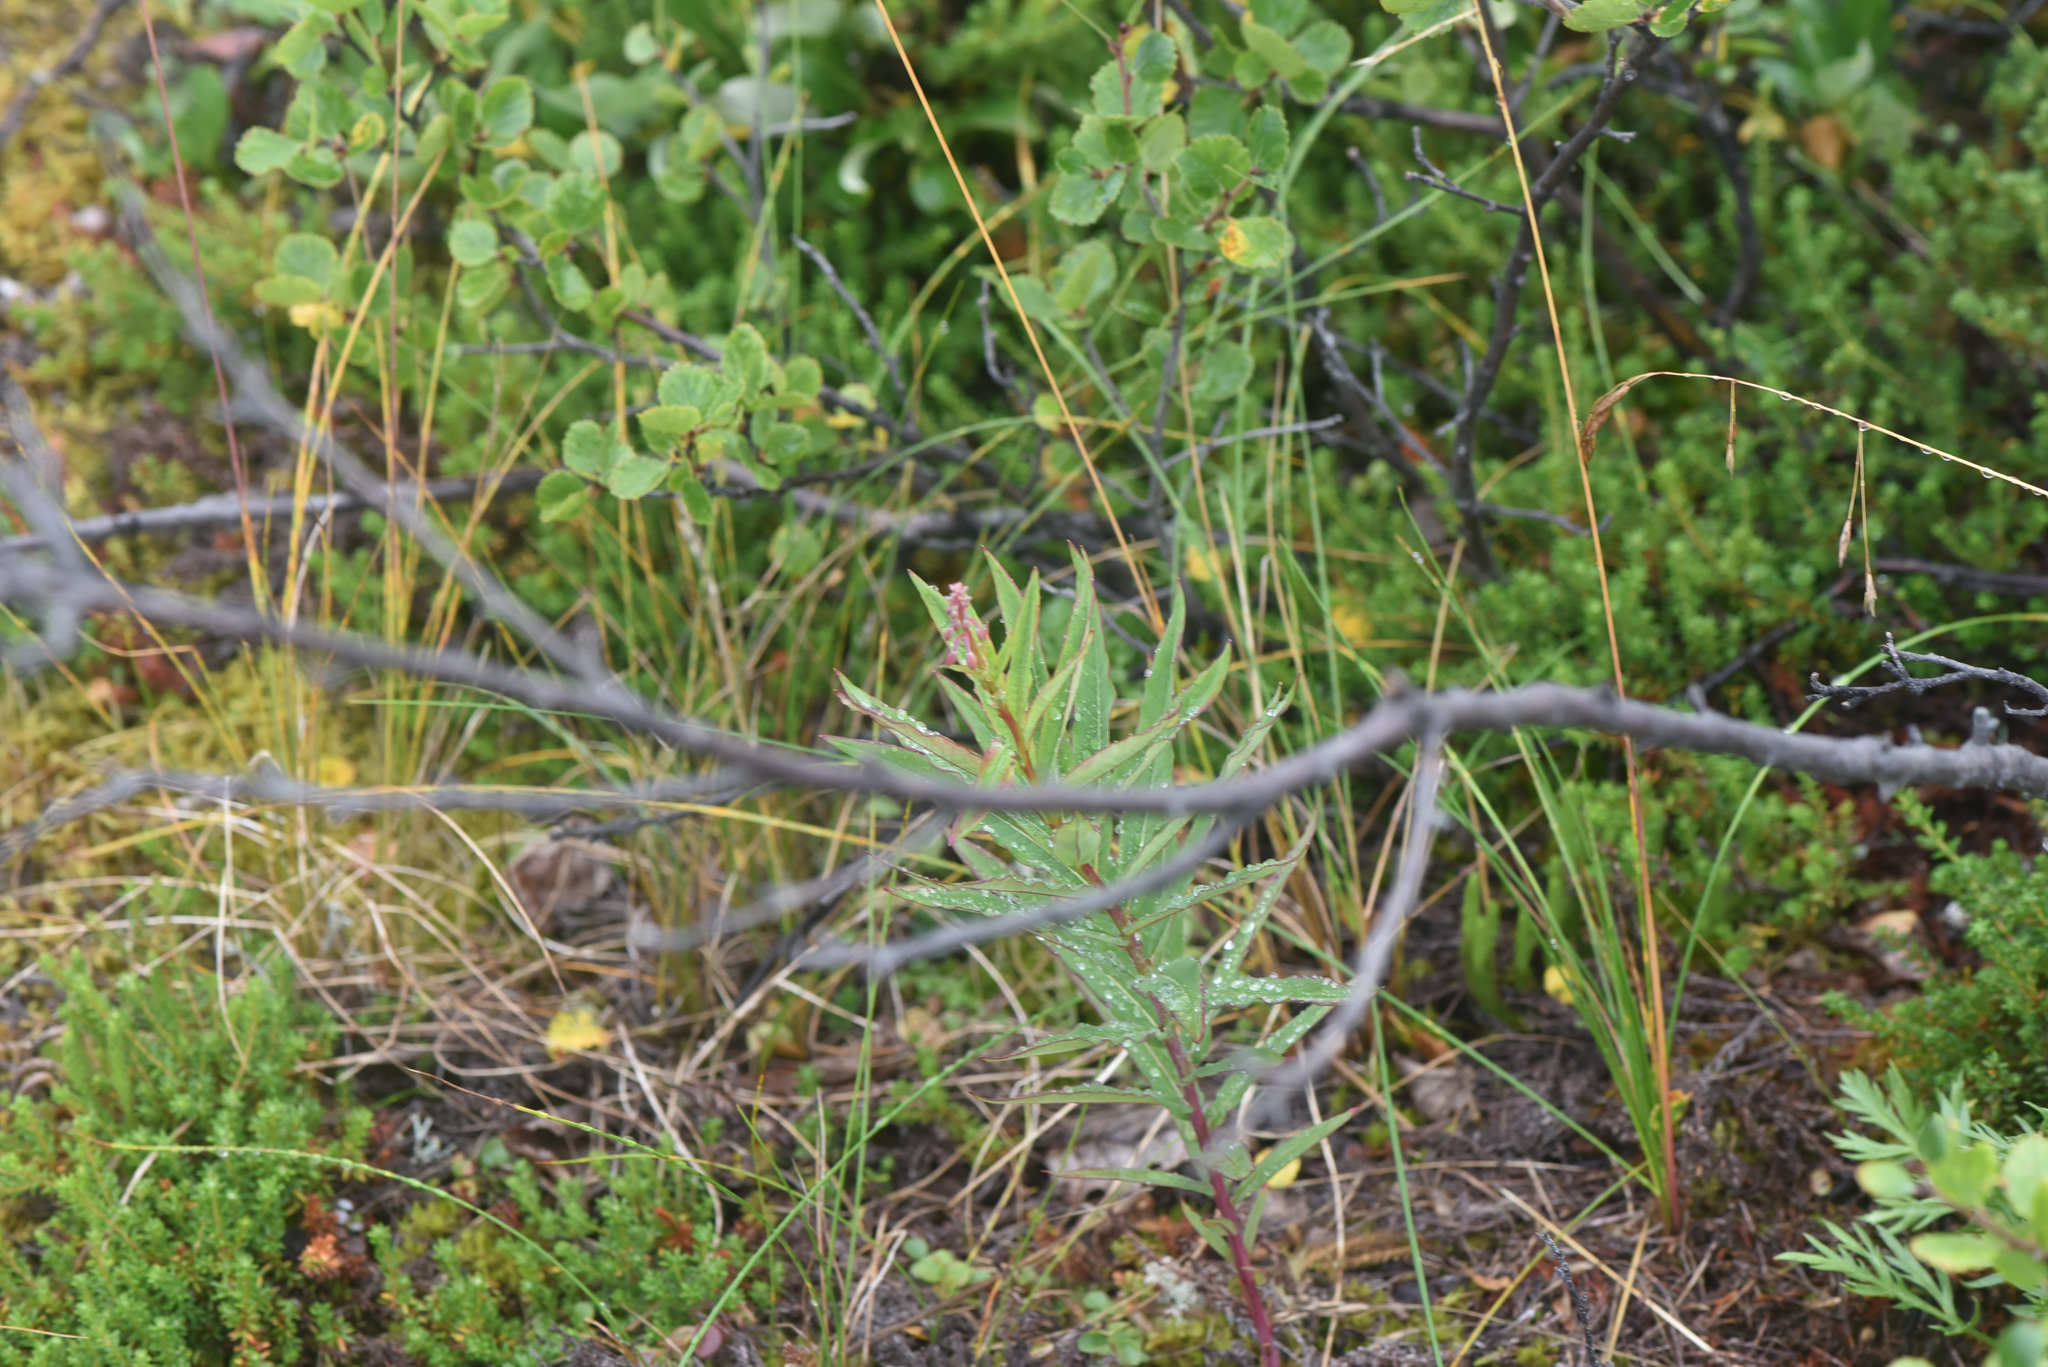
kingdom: Plantae
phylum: Tracheophyta
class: Magnoliopsida
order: Myrtales
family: Onagraceae
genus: Chamaenerion
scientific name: Chamaenerion angustifolium
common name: Fireweed
